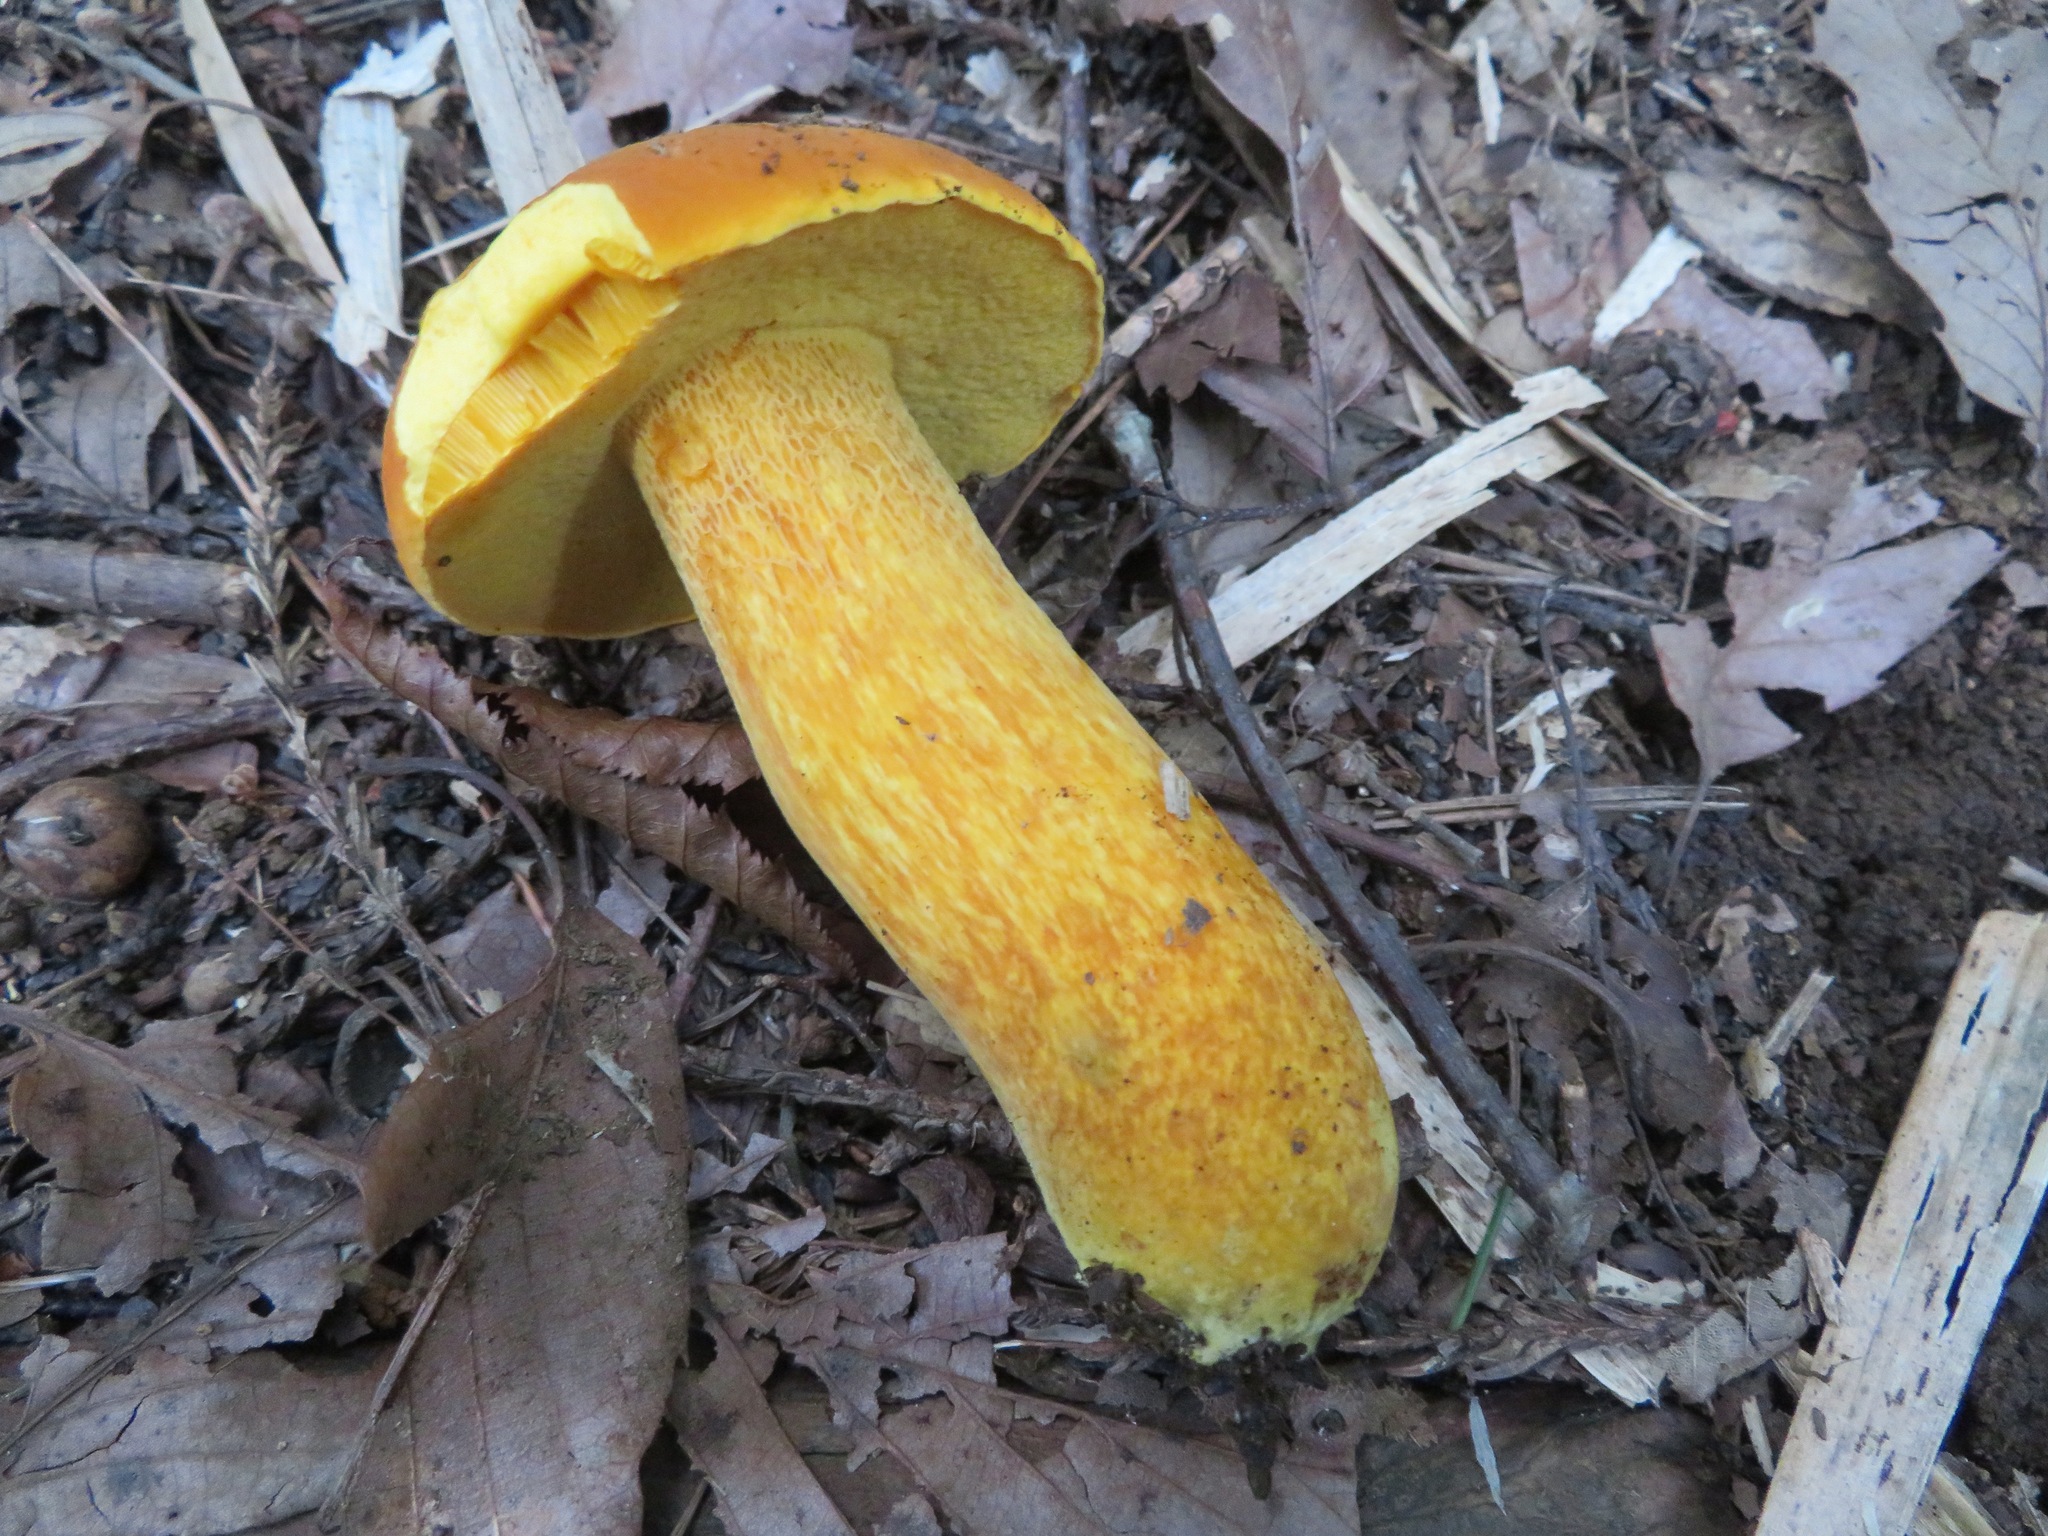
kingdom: Fungi
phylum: Basidiomycota
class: Agaricomycetes
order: Boletales
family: Boletaceae
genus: Boletus
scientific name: Boletus aurantiosplendens
